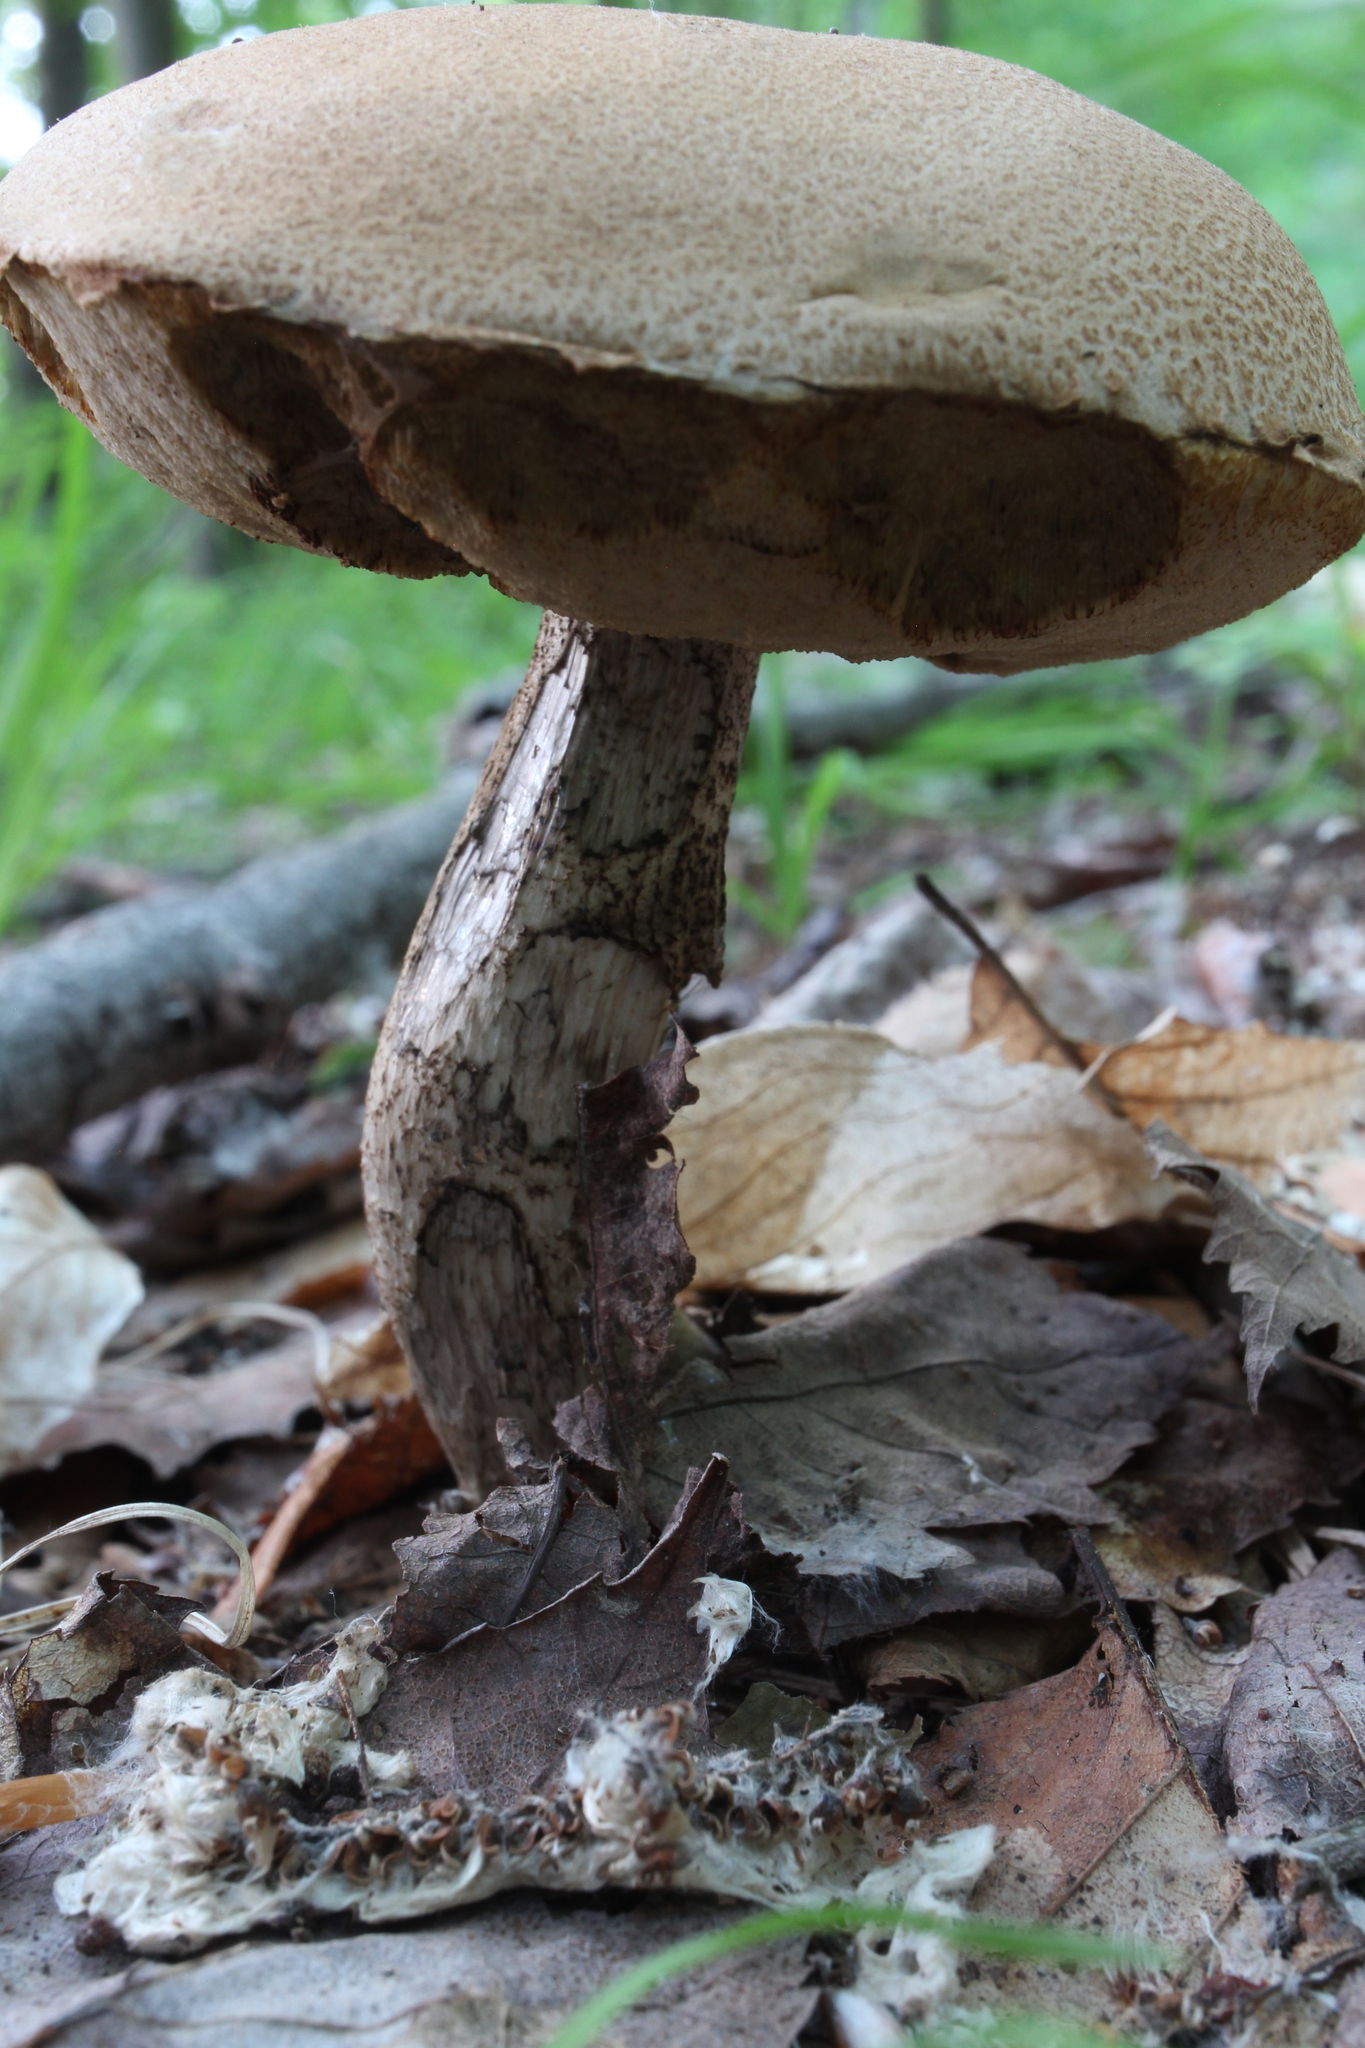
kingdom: Fungi
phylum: Basidiomycota
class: Agaricomycetes
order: Boletales
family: Boletaceae
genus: Leccinum
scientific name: Leccinum insigne
